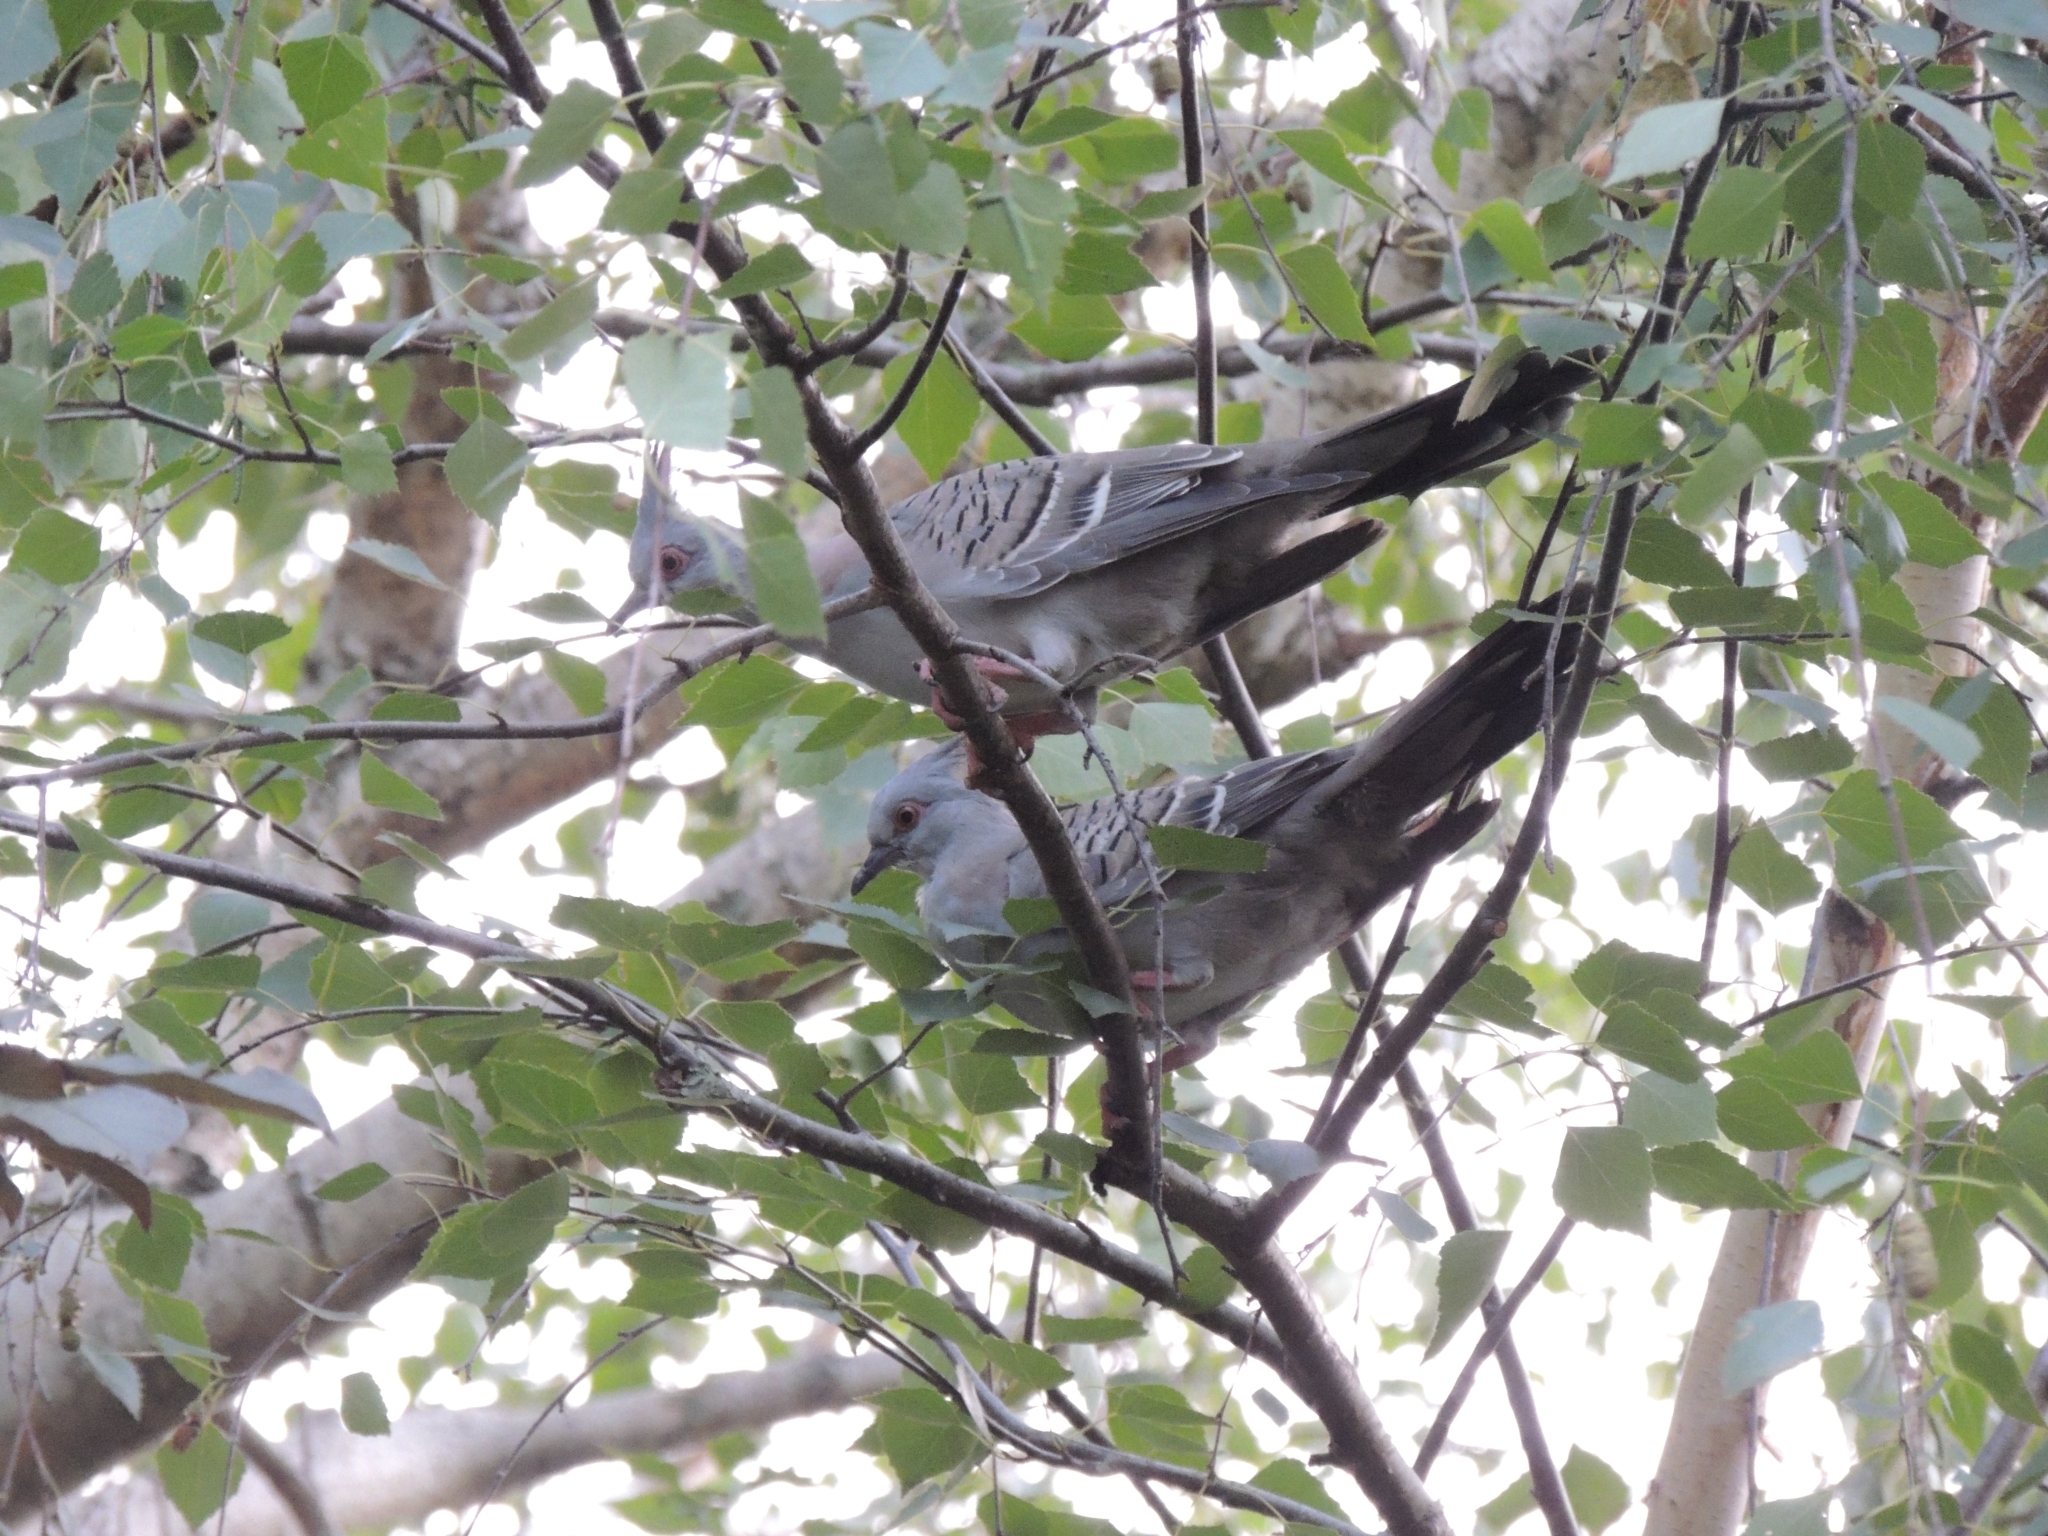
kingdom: Animalia
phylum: Chordata
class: Aves
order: Columbiformes
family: Columbidae
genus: Ocyphaps
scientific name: Ocyphaps lophotes
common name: Crested pigeon
